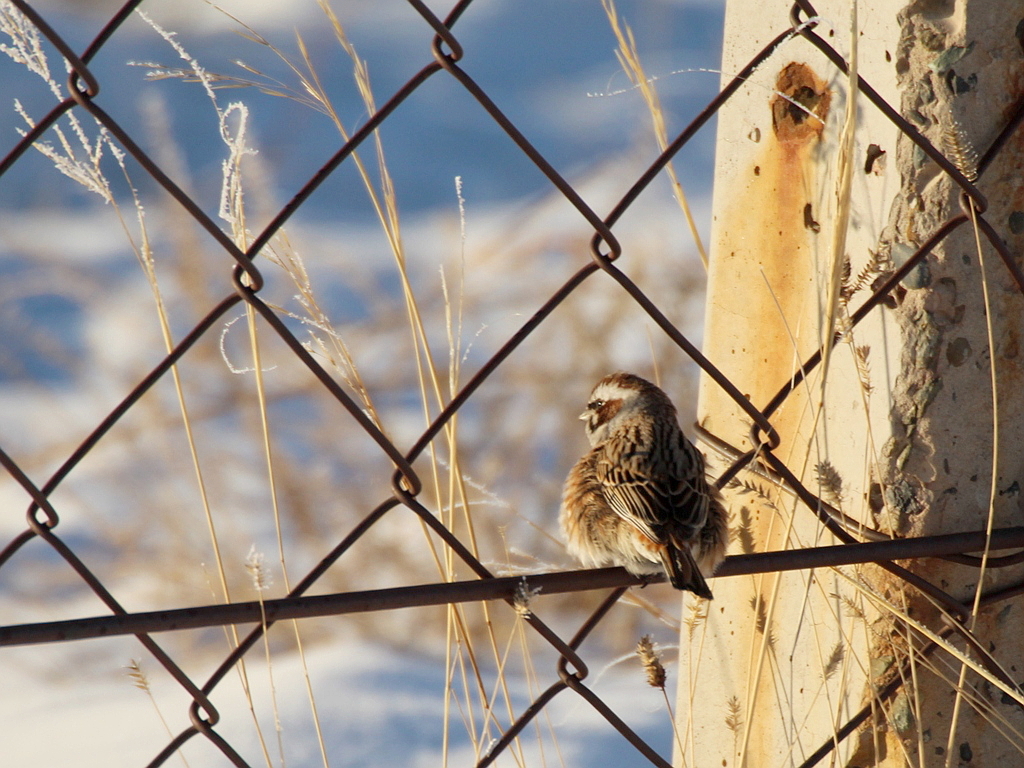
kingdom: Animalia
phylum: Chordata
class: Aves
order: Passeriformes
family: Emberizidae
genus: Emberiza
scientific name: Emberiza cioides
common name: Meadow bunting
